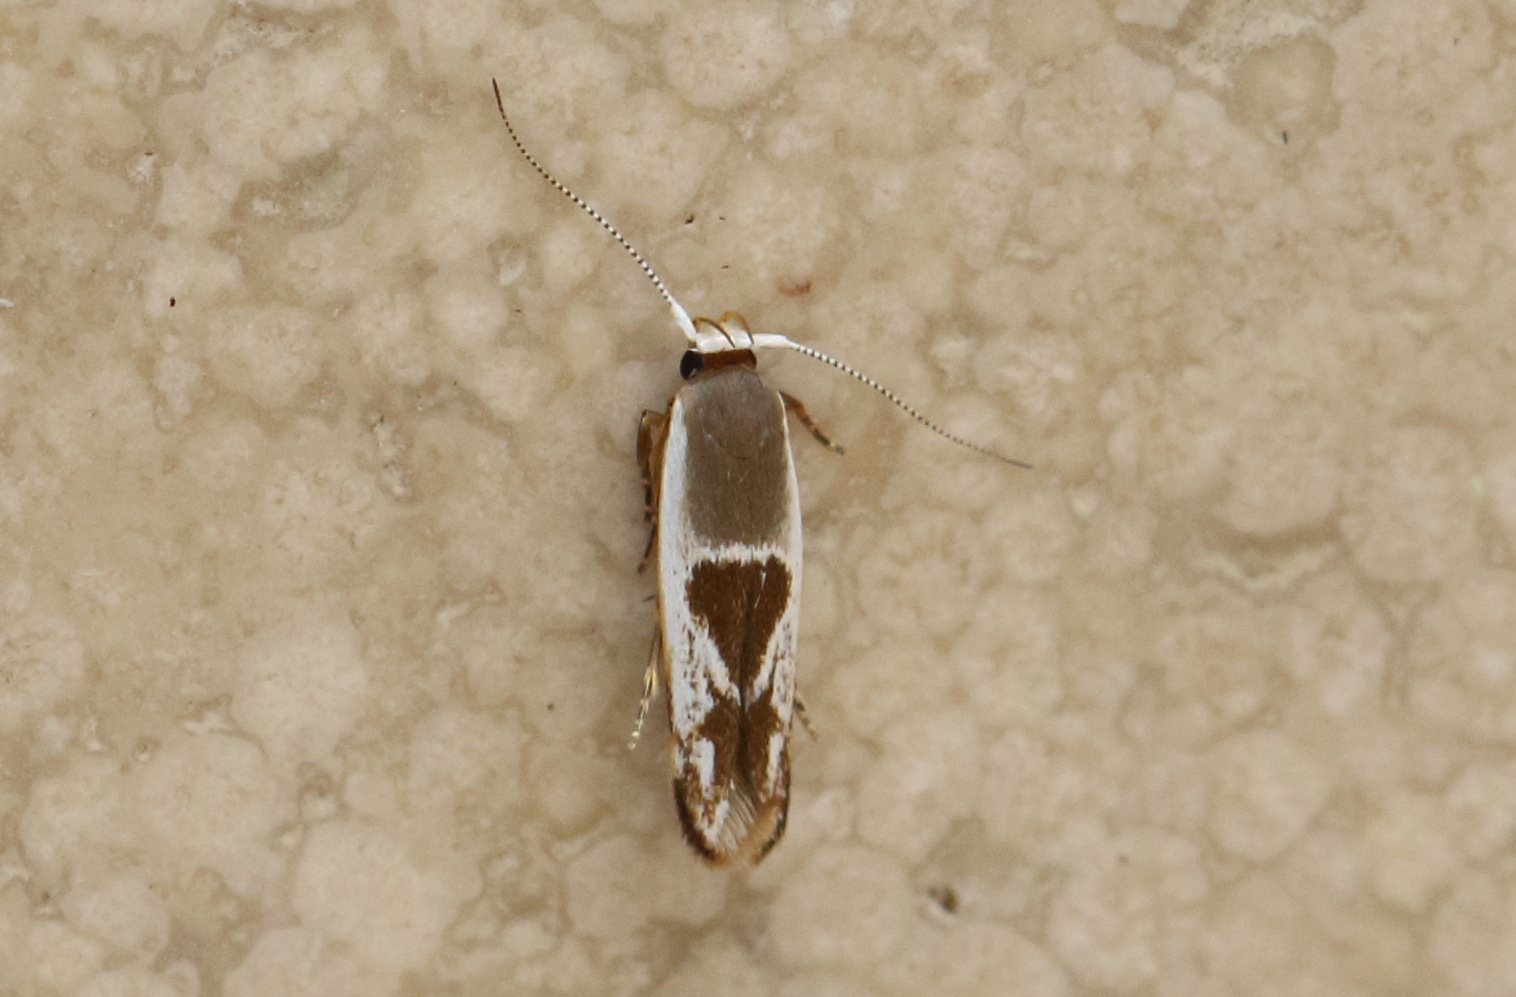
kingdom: Animalia
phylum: Arthropoda
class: Insecta
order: Lepidoptera
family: Stathmopodidae
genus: Stathmopoda
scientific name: Stathmopoda megathyma
